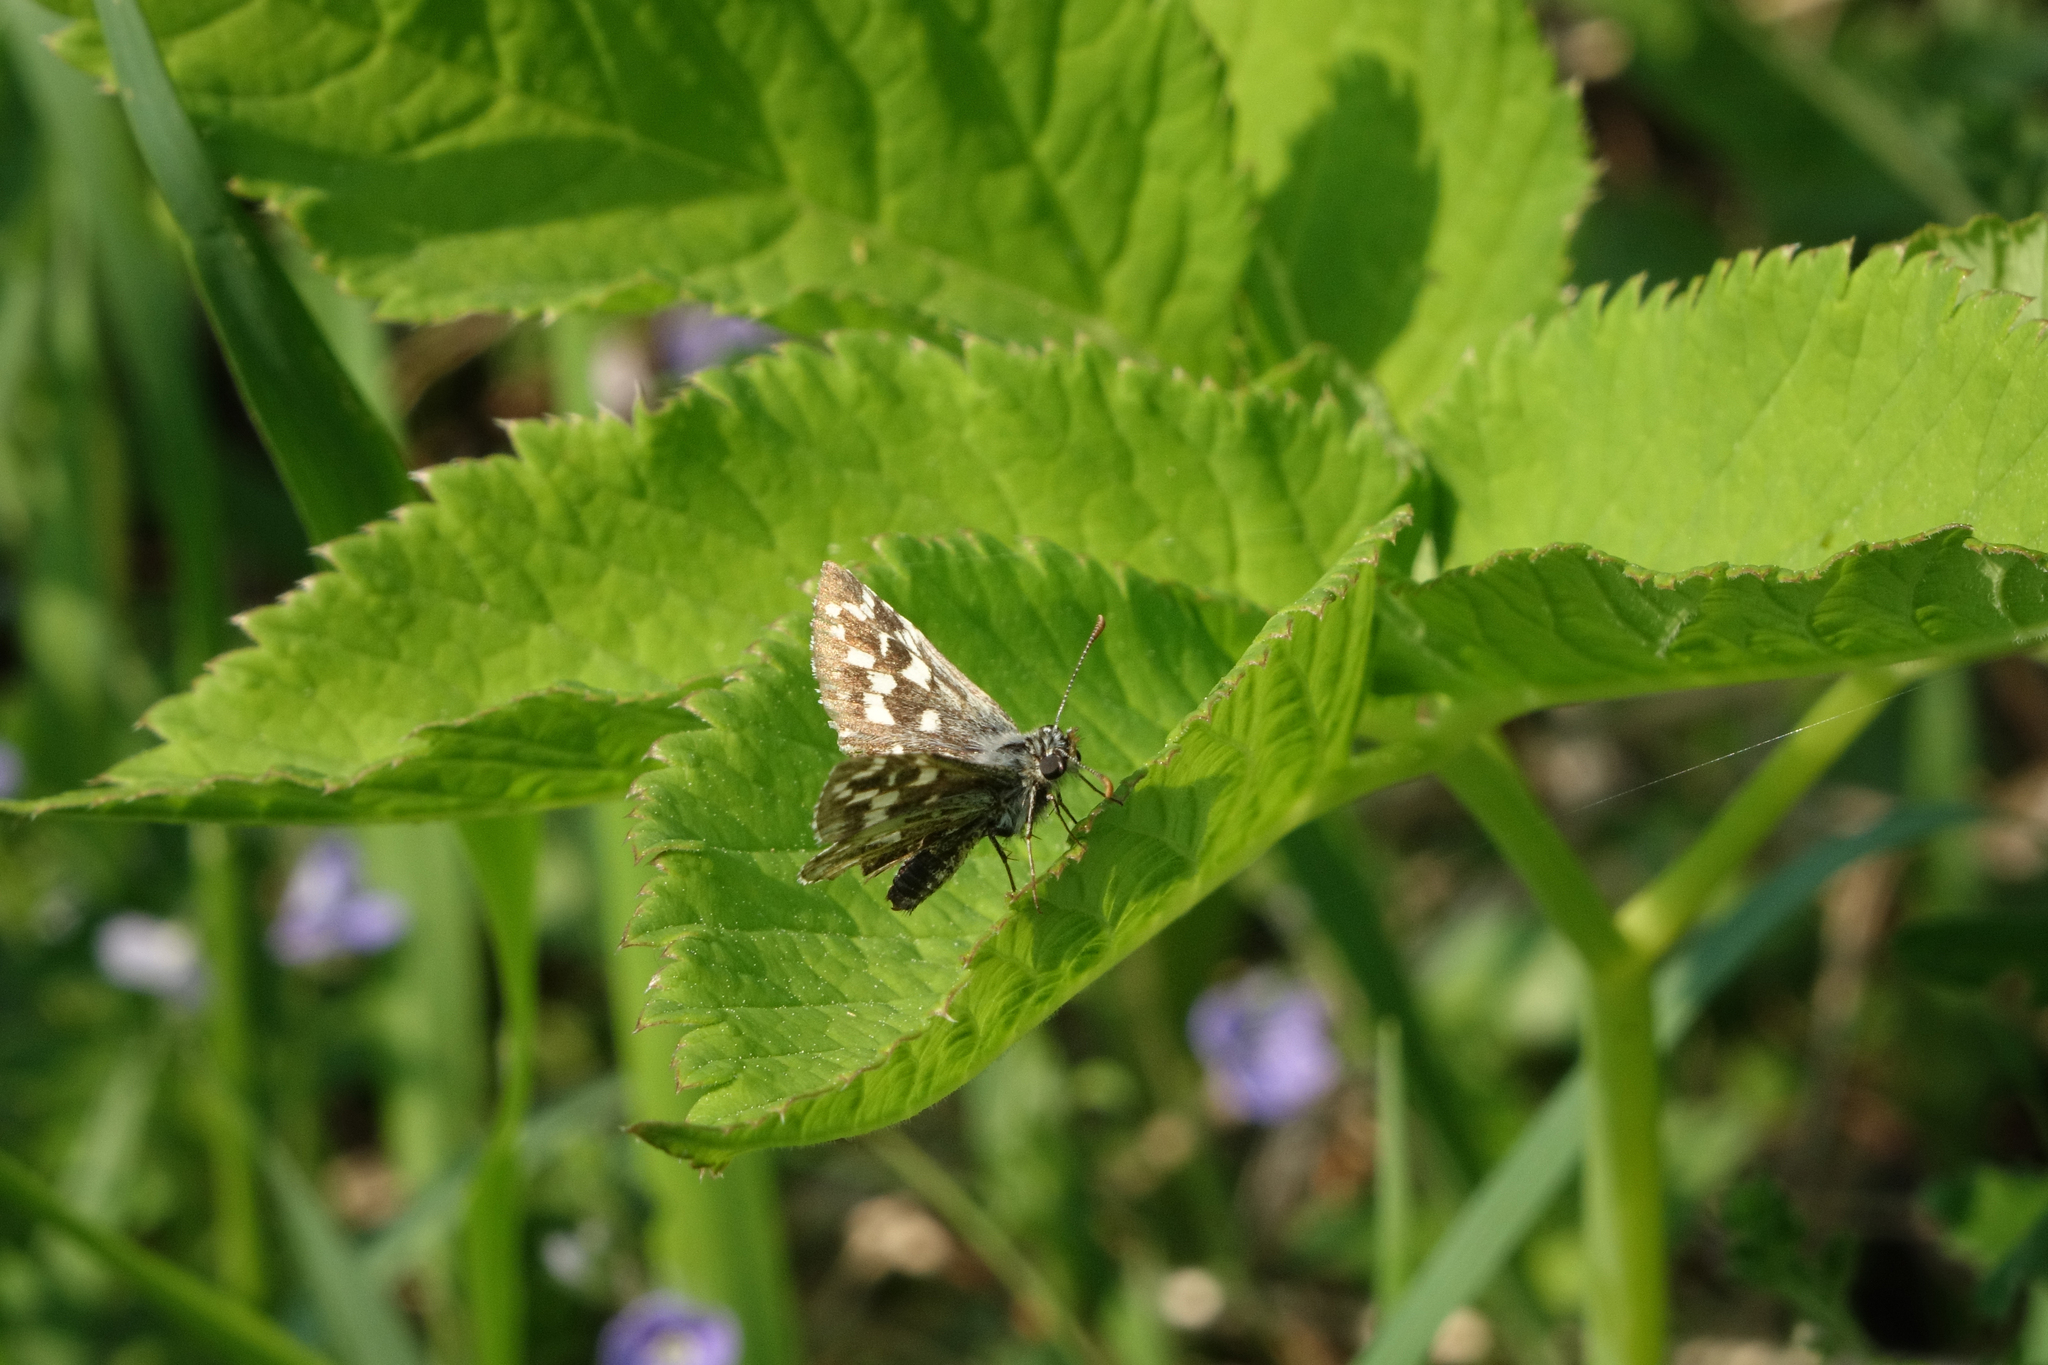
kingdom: Animalia
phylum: Arthropoda
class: Insecta
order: Lepidoptera
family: Hesperiidae
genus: Pyrgus
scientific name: Pyrgus malvae
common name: Grizzled skipper
